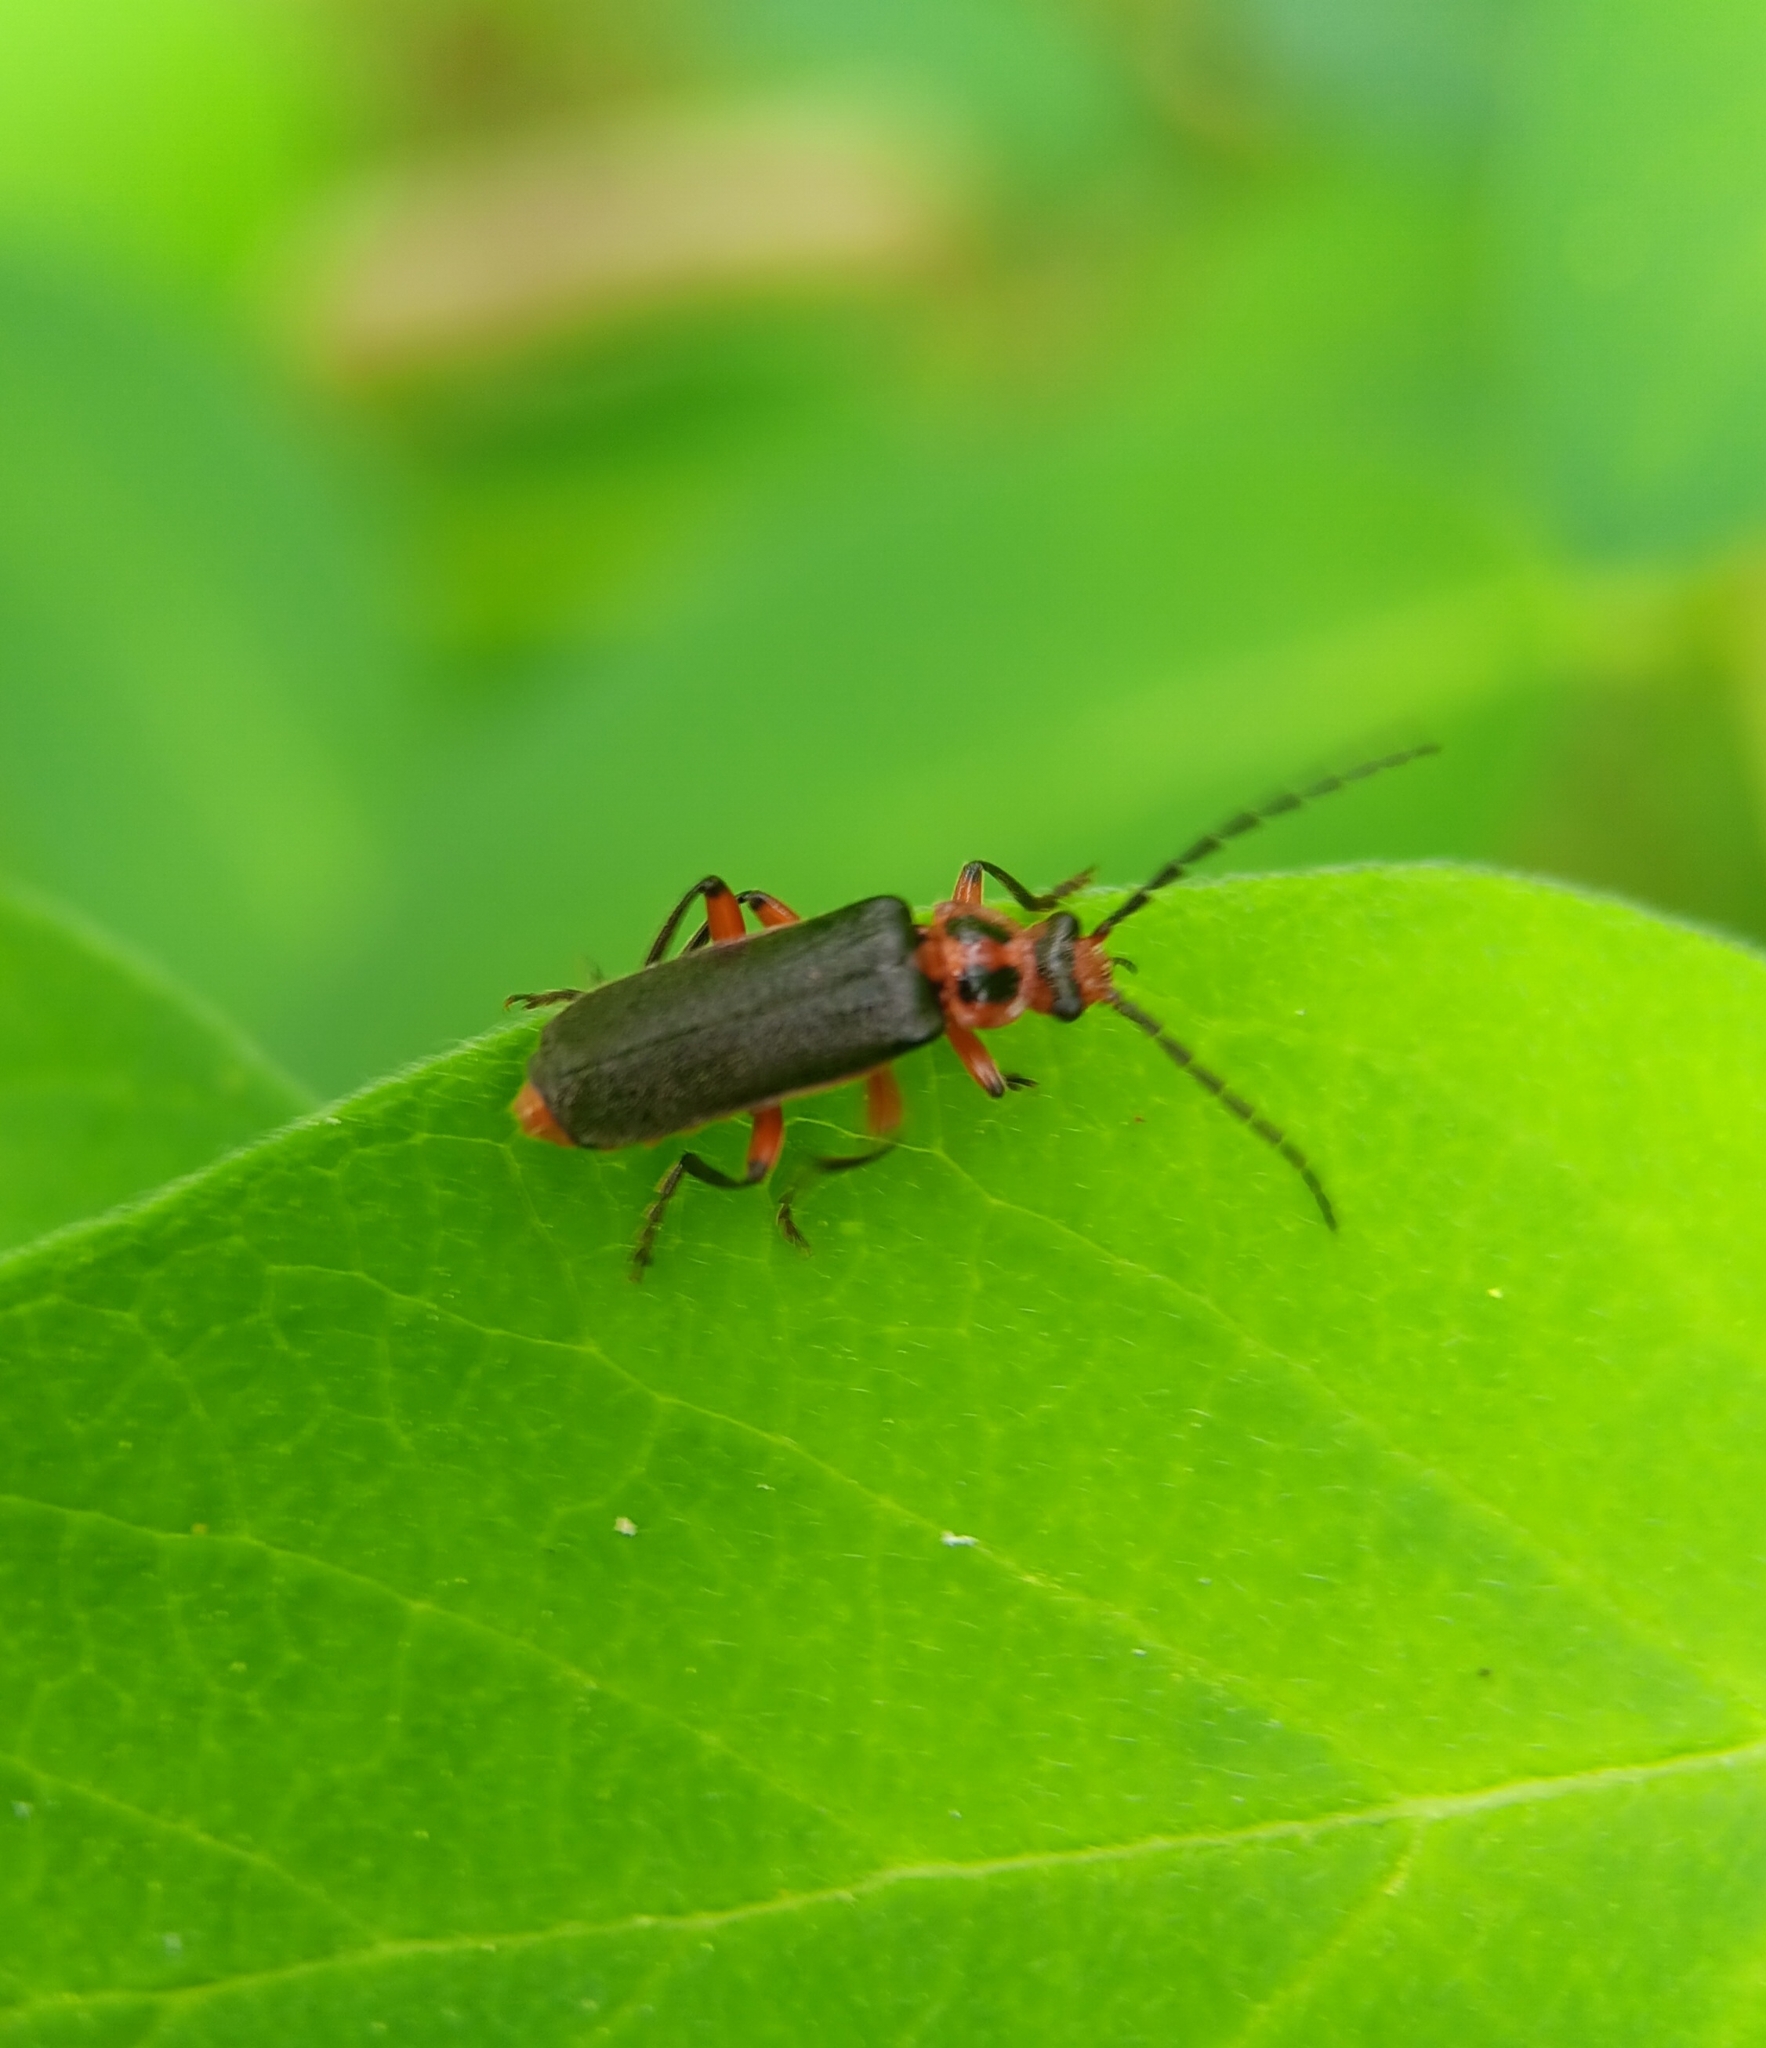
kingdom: Animalia
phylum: Arthropoda
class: Insecta
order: Coleoptera
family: Cantharidae
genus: Atalantycha
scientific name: Atalantycha bilineata
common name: Two-lined leatherwing
